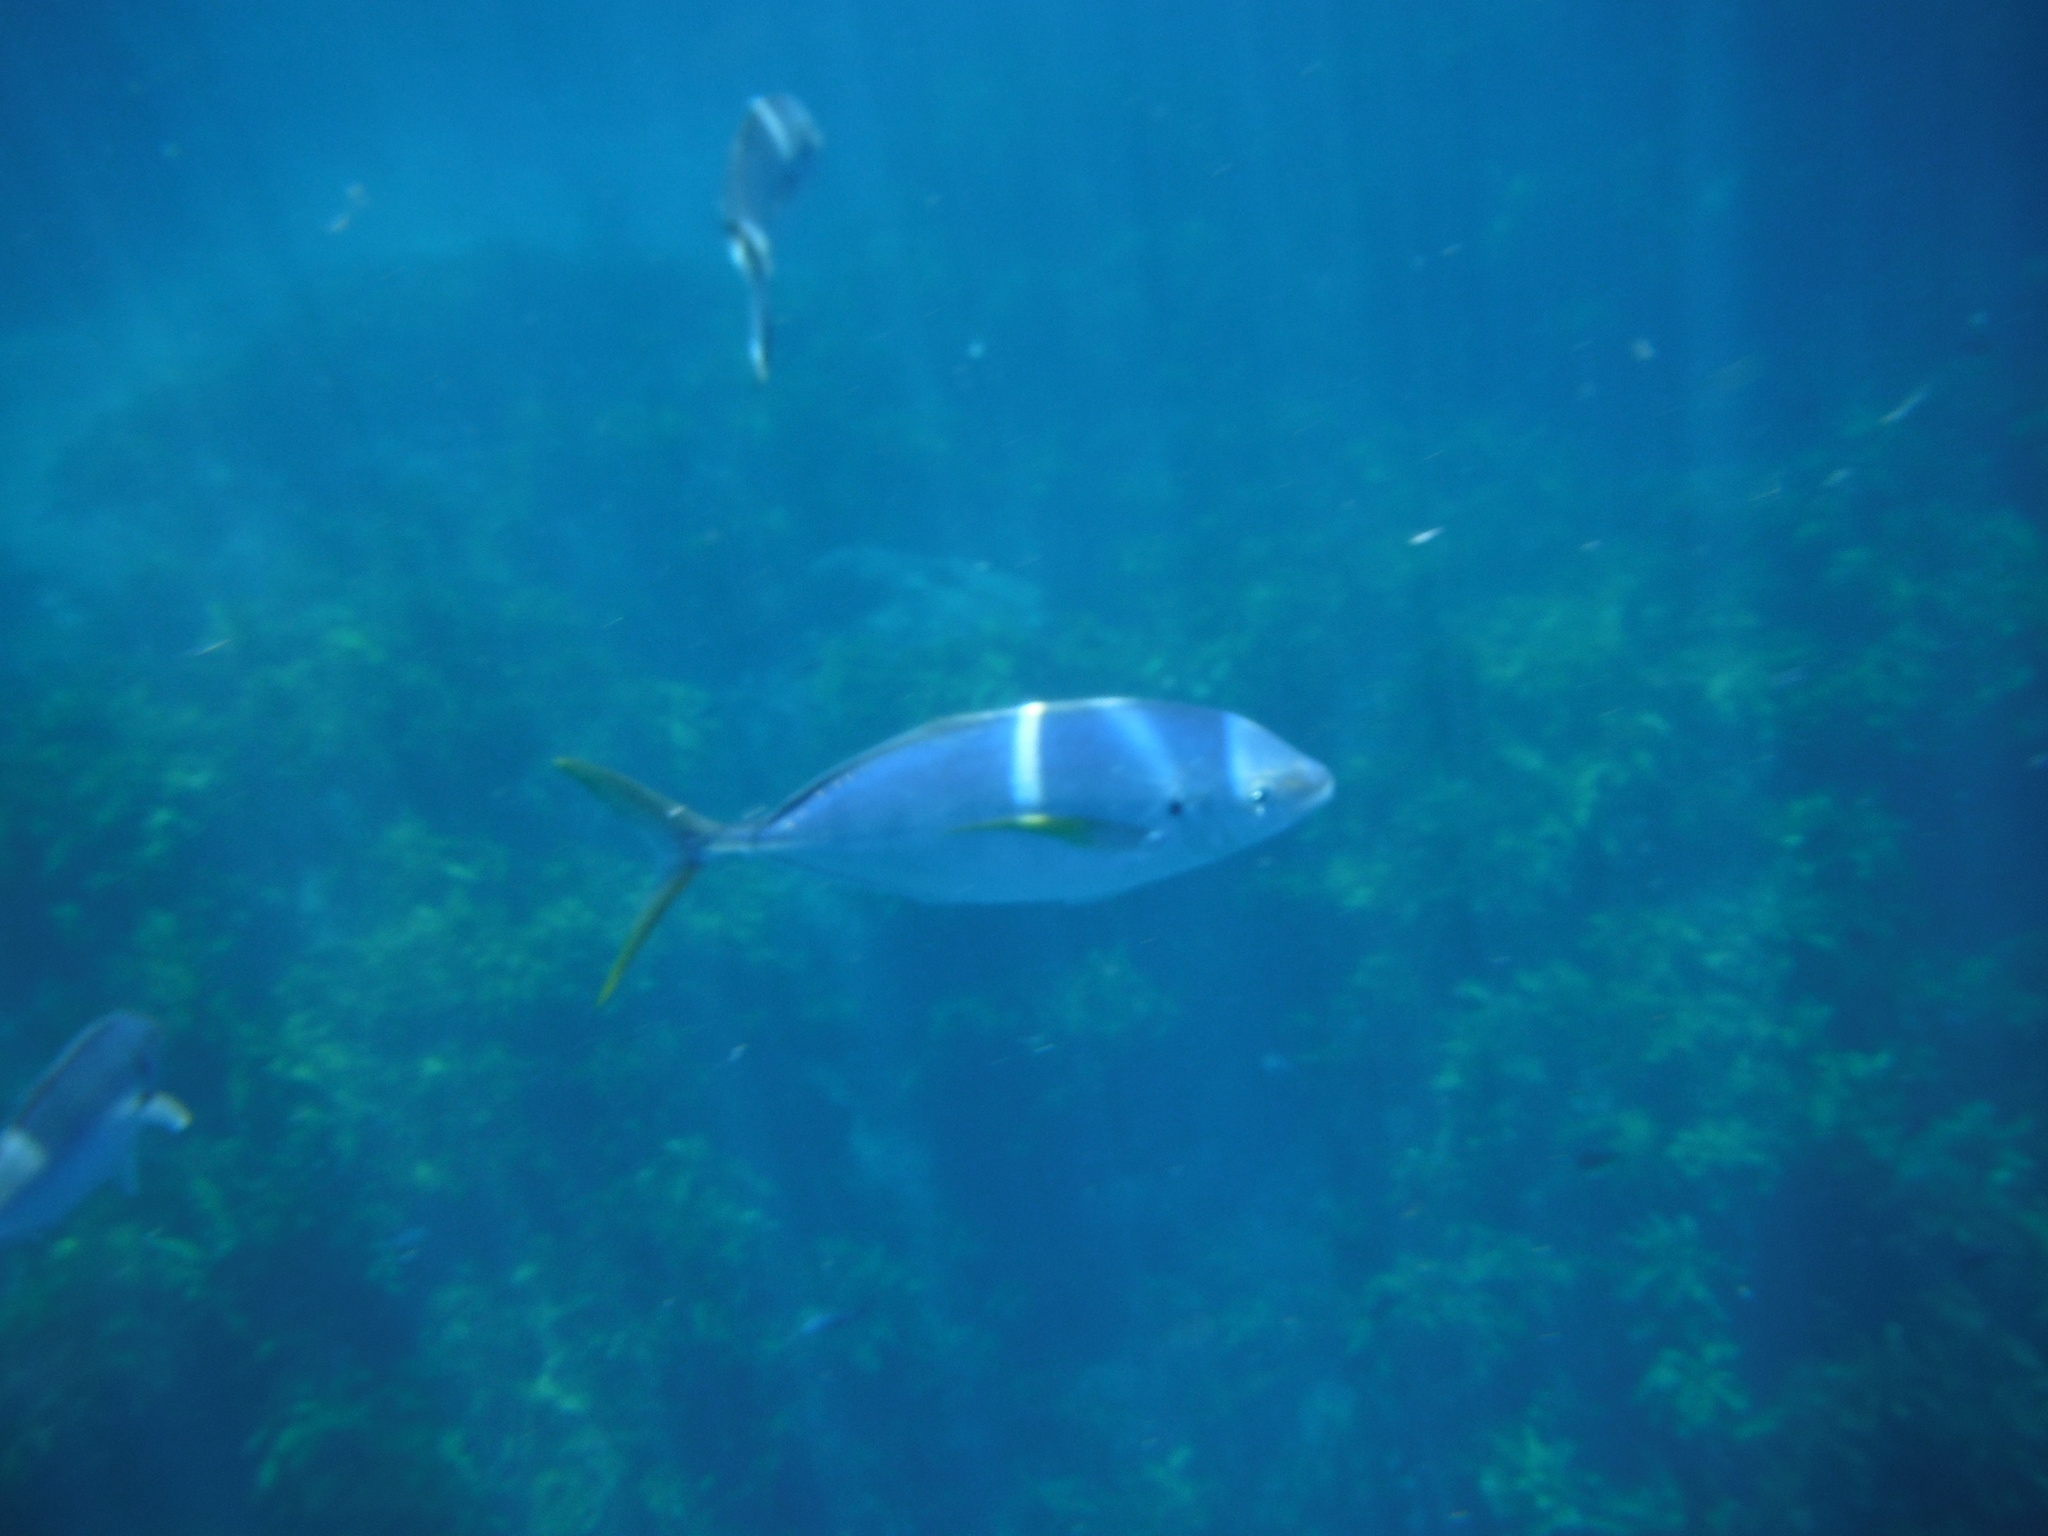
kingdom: Animalia
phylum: Chordata
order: Perciformes
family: Carangidae
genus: Pseudocaranx
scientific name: Pseudocaranx dentex
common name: White trevally
